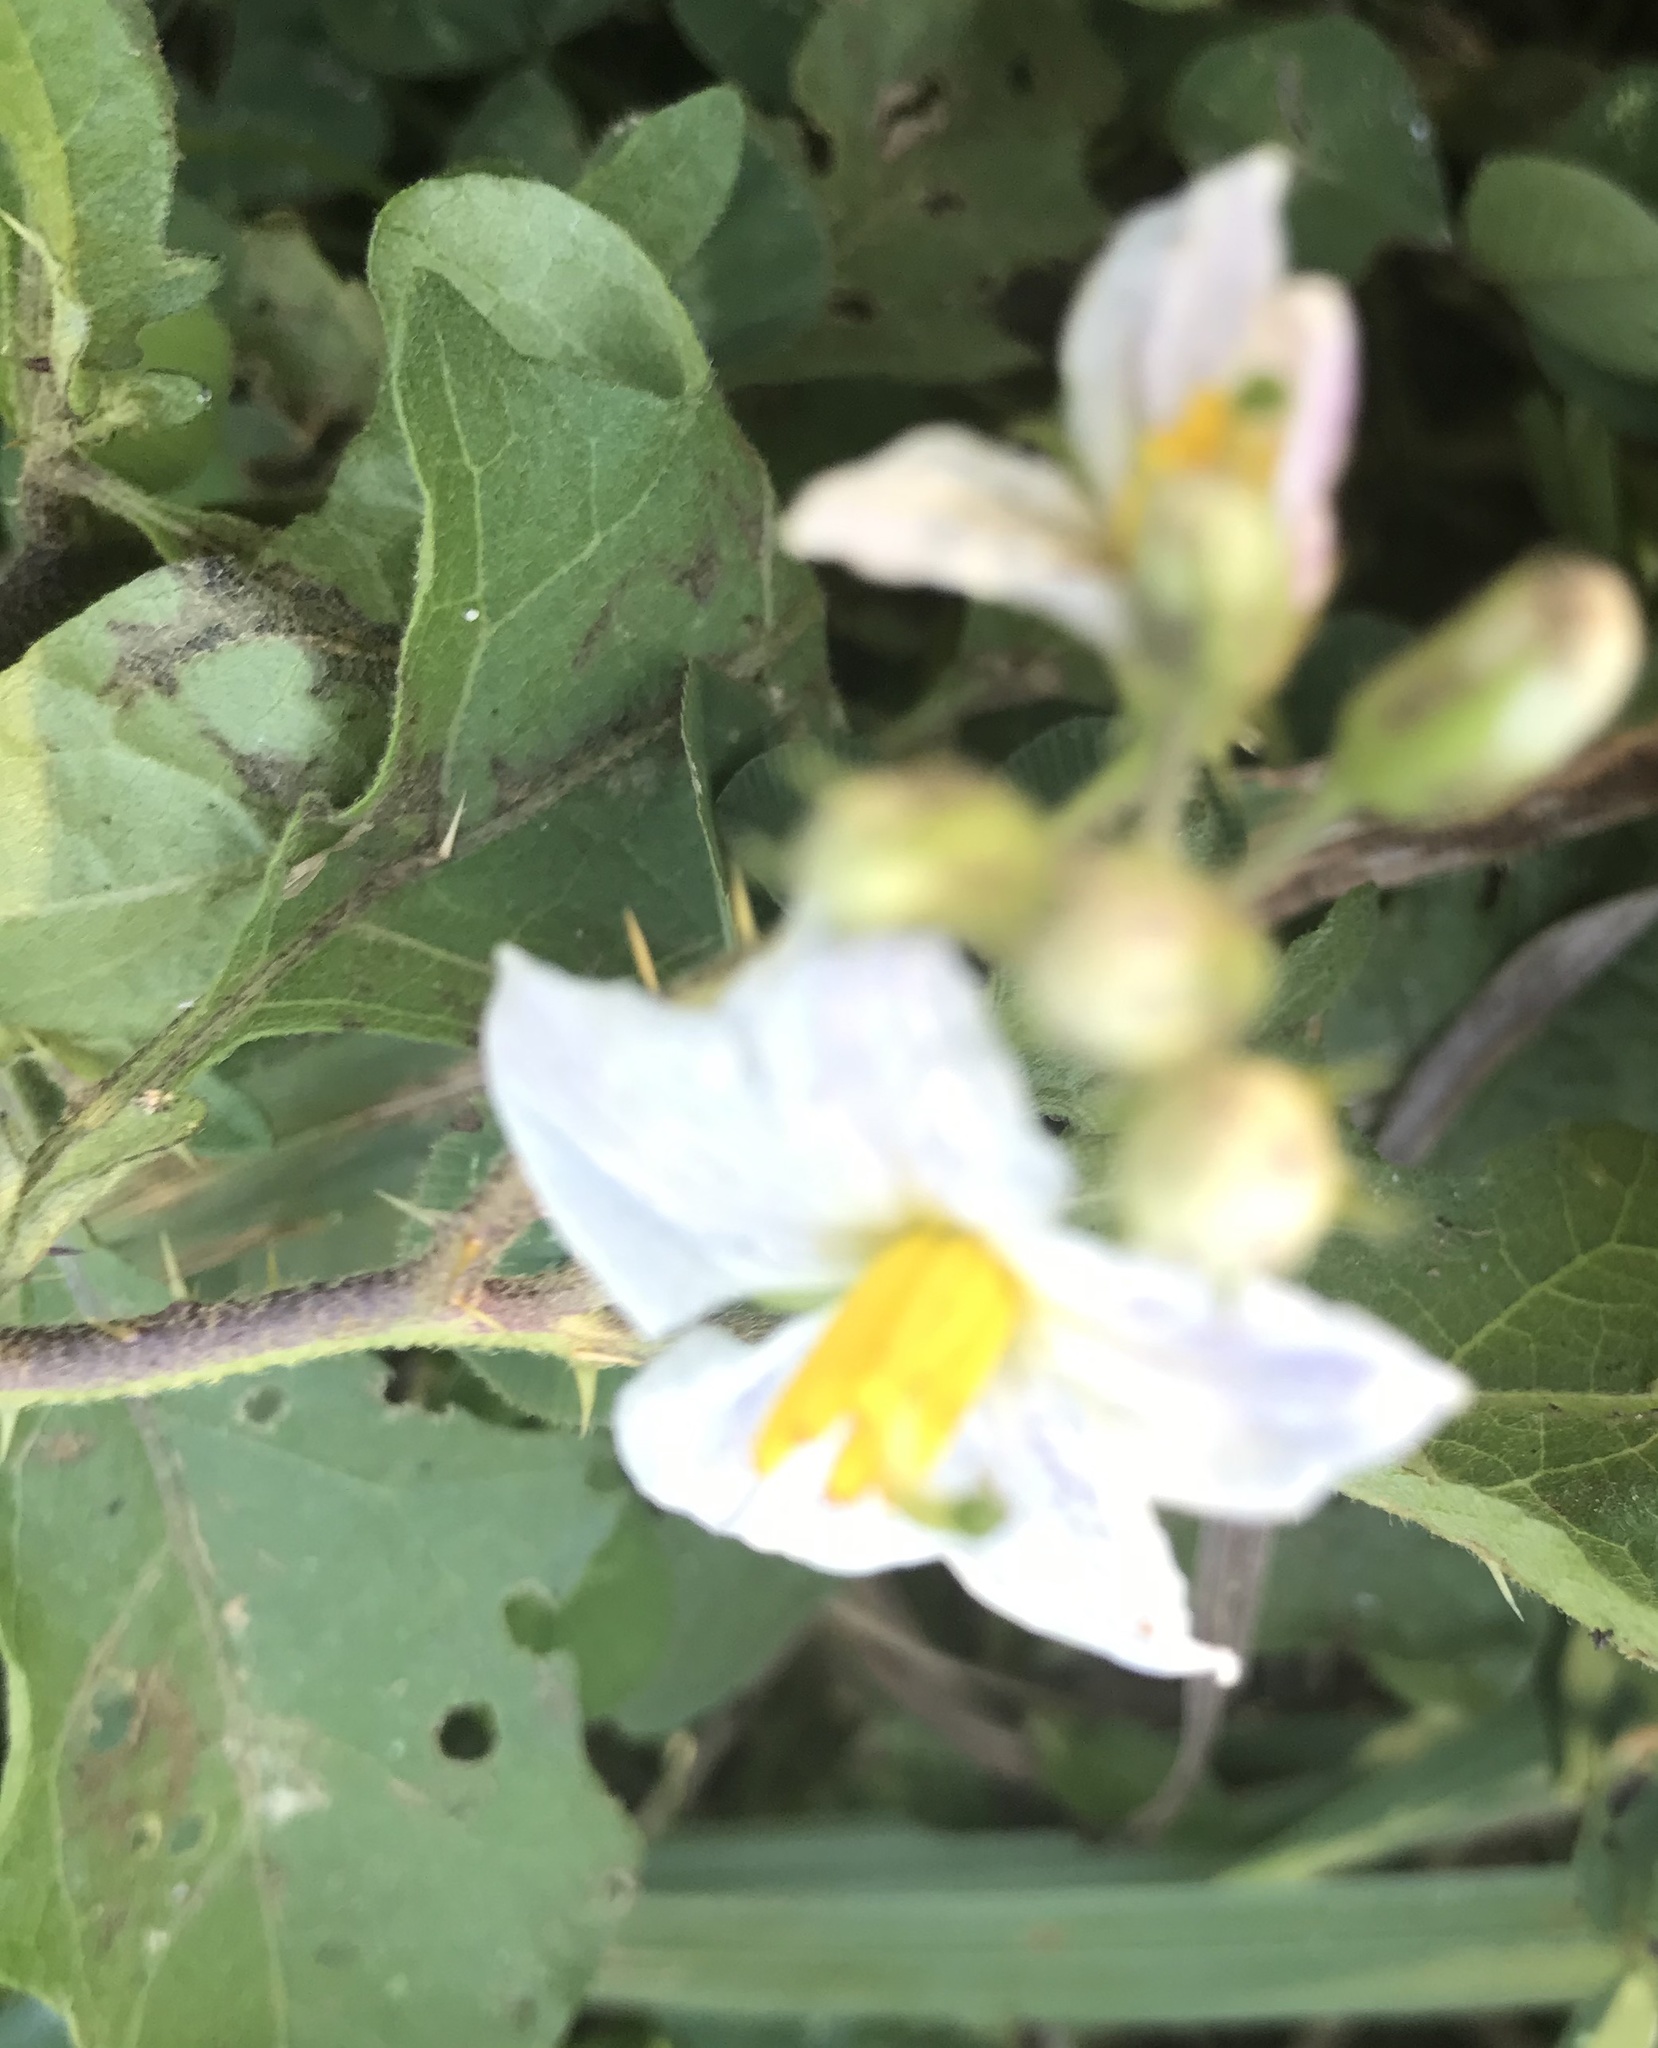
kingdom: Plantae
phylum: Tracheophyta
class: Magnoliopsida
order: Solanales
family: Solanaceae
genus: Solanum
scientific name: Solanum carolinense
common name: Horse-nettle
